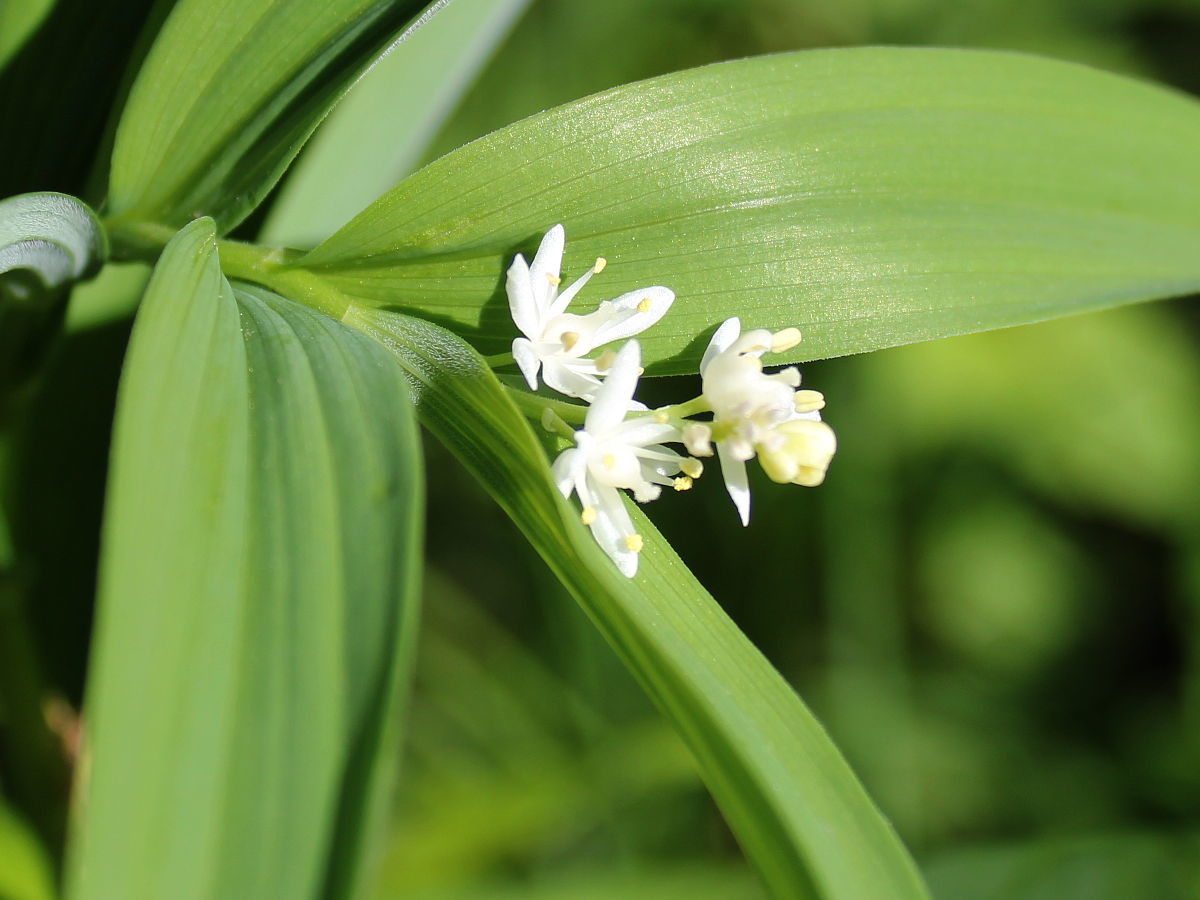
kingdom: Plantae
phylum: Tracheophyta
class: Liliopsida
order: Asparagales
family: Asparagaceae
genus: Maianthemum
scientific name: Maianthemum stellatum
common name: Little false solomon's seal
